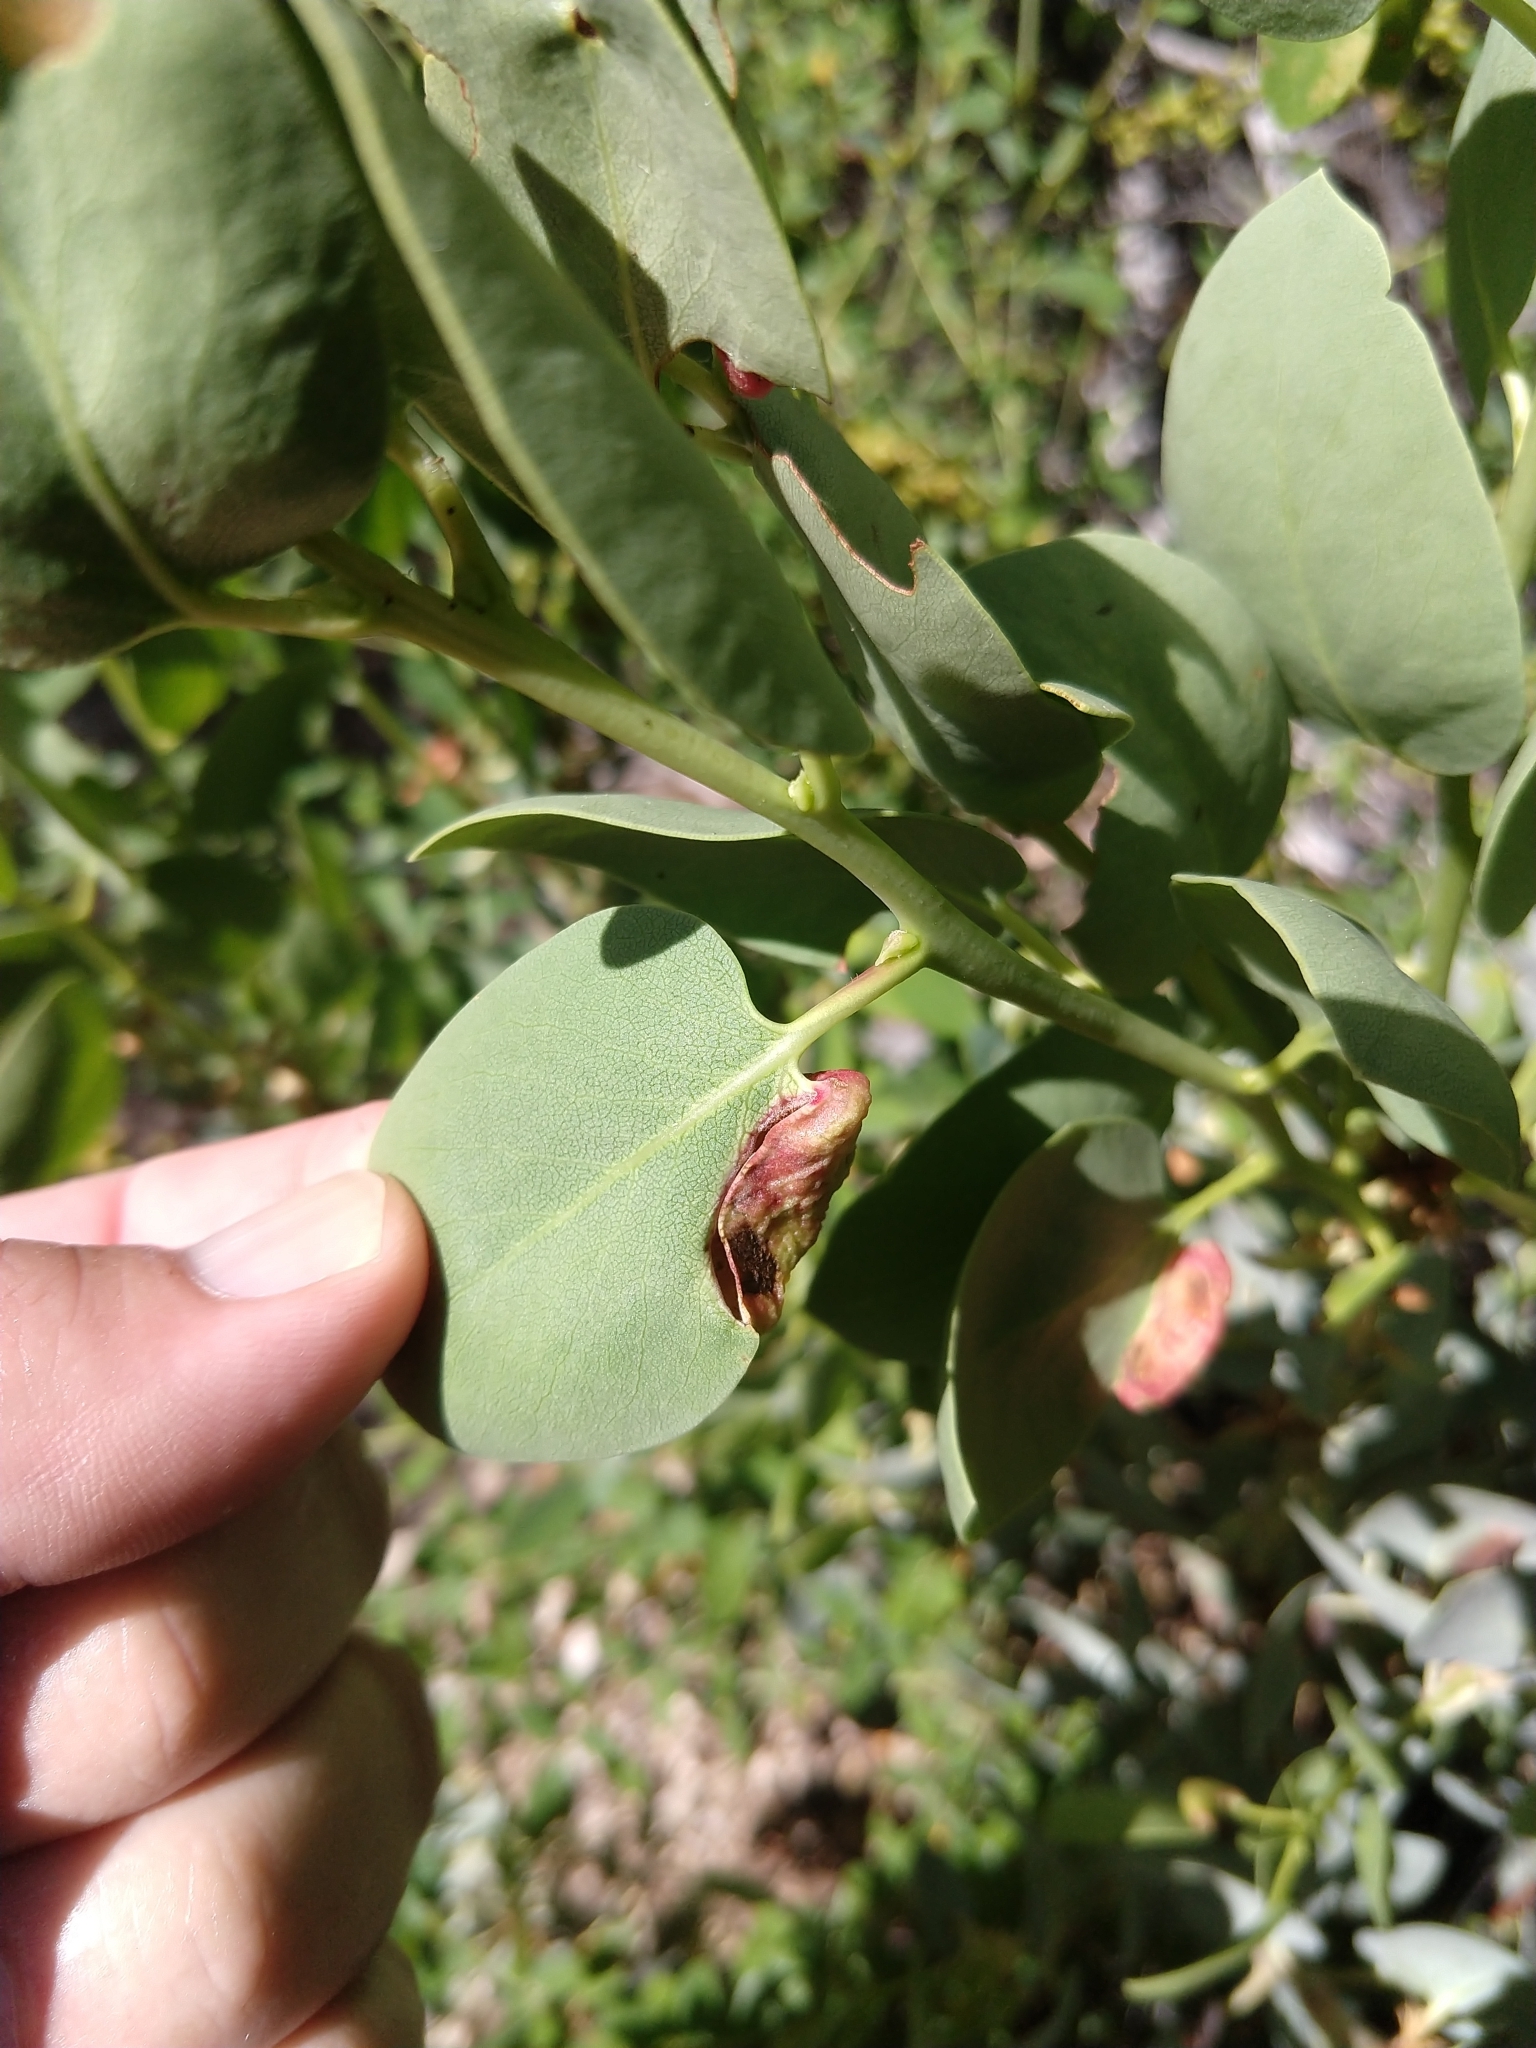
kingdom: Animalia
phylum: Arthropoda
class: Insecta
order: Hemiptera
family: Aphididae
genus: Tamalia
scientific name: Tamalia
